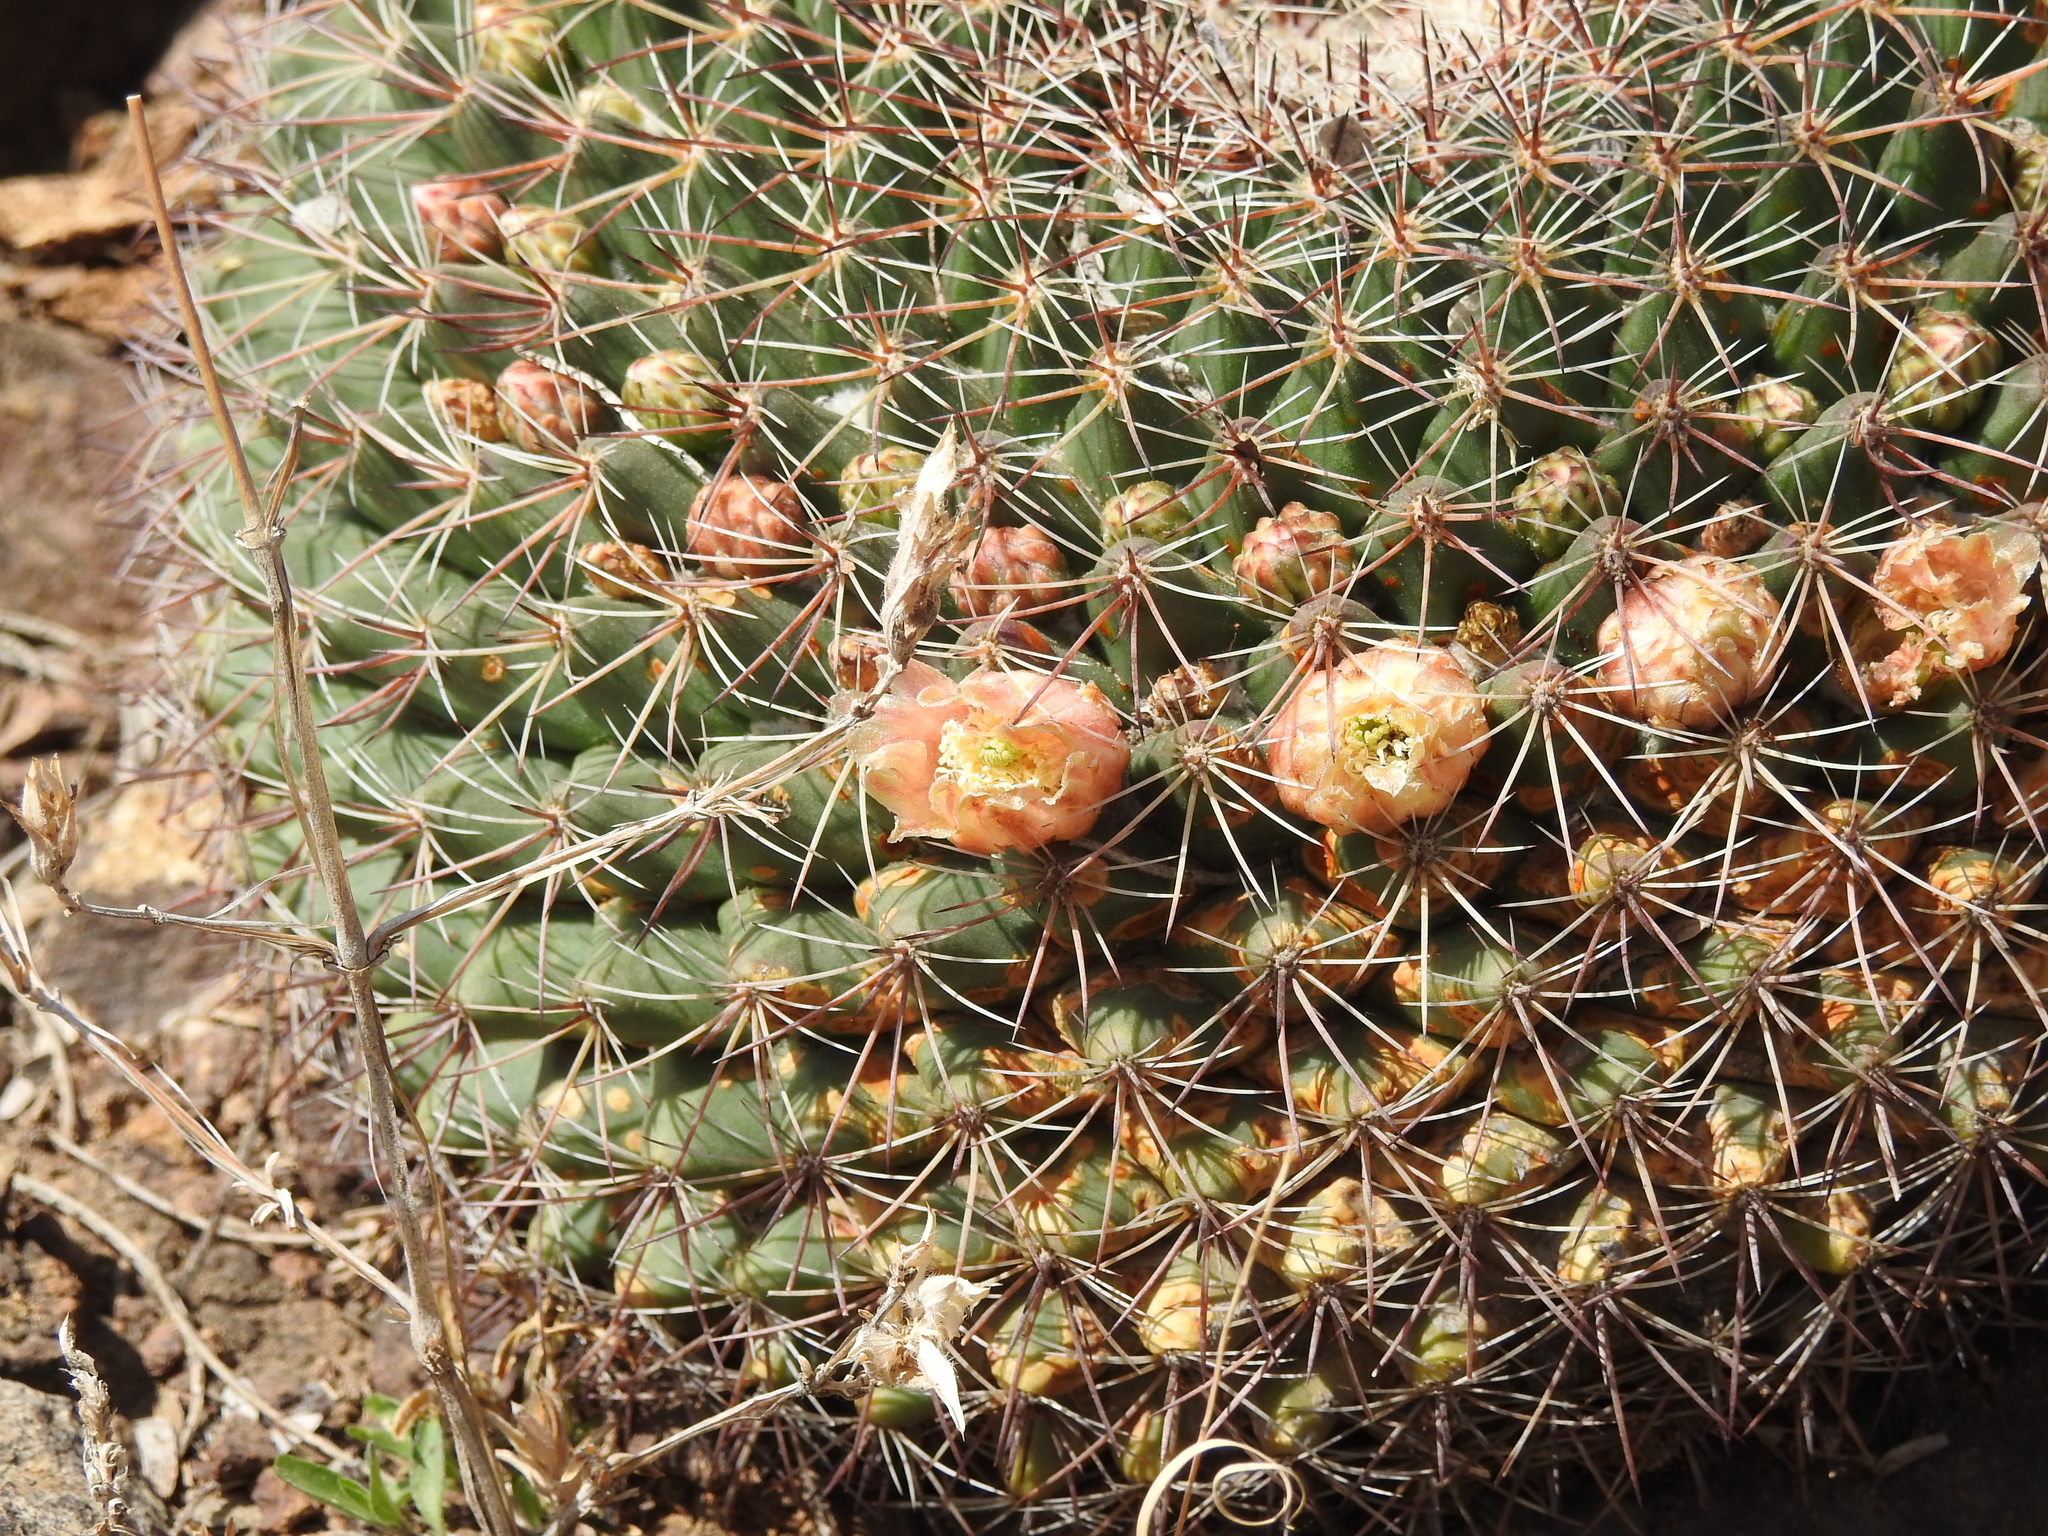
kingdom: Plantae
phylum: Tracheophyta
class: Magnoliopsida
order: Caryophyllales
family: Cactaceae
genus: Mammillaria
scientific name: Mammillaria heyderi
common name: Little nipple cactus
